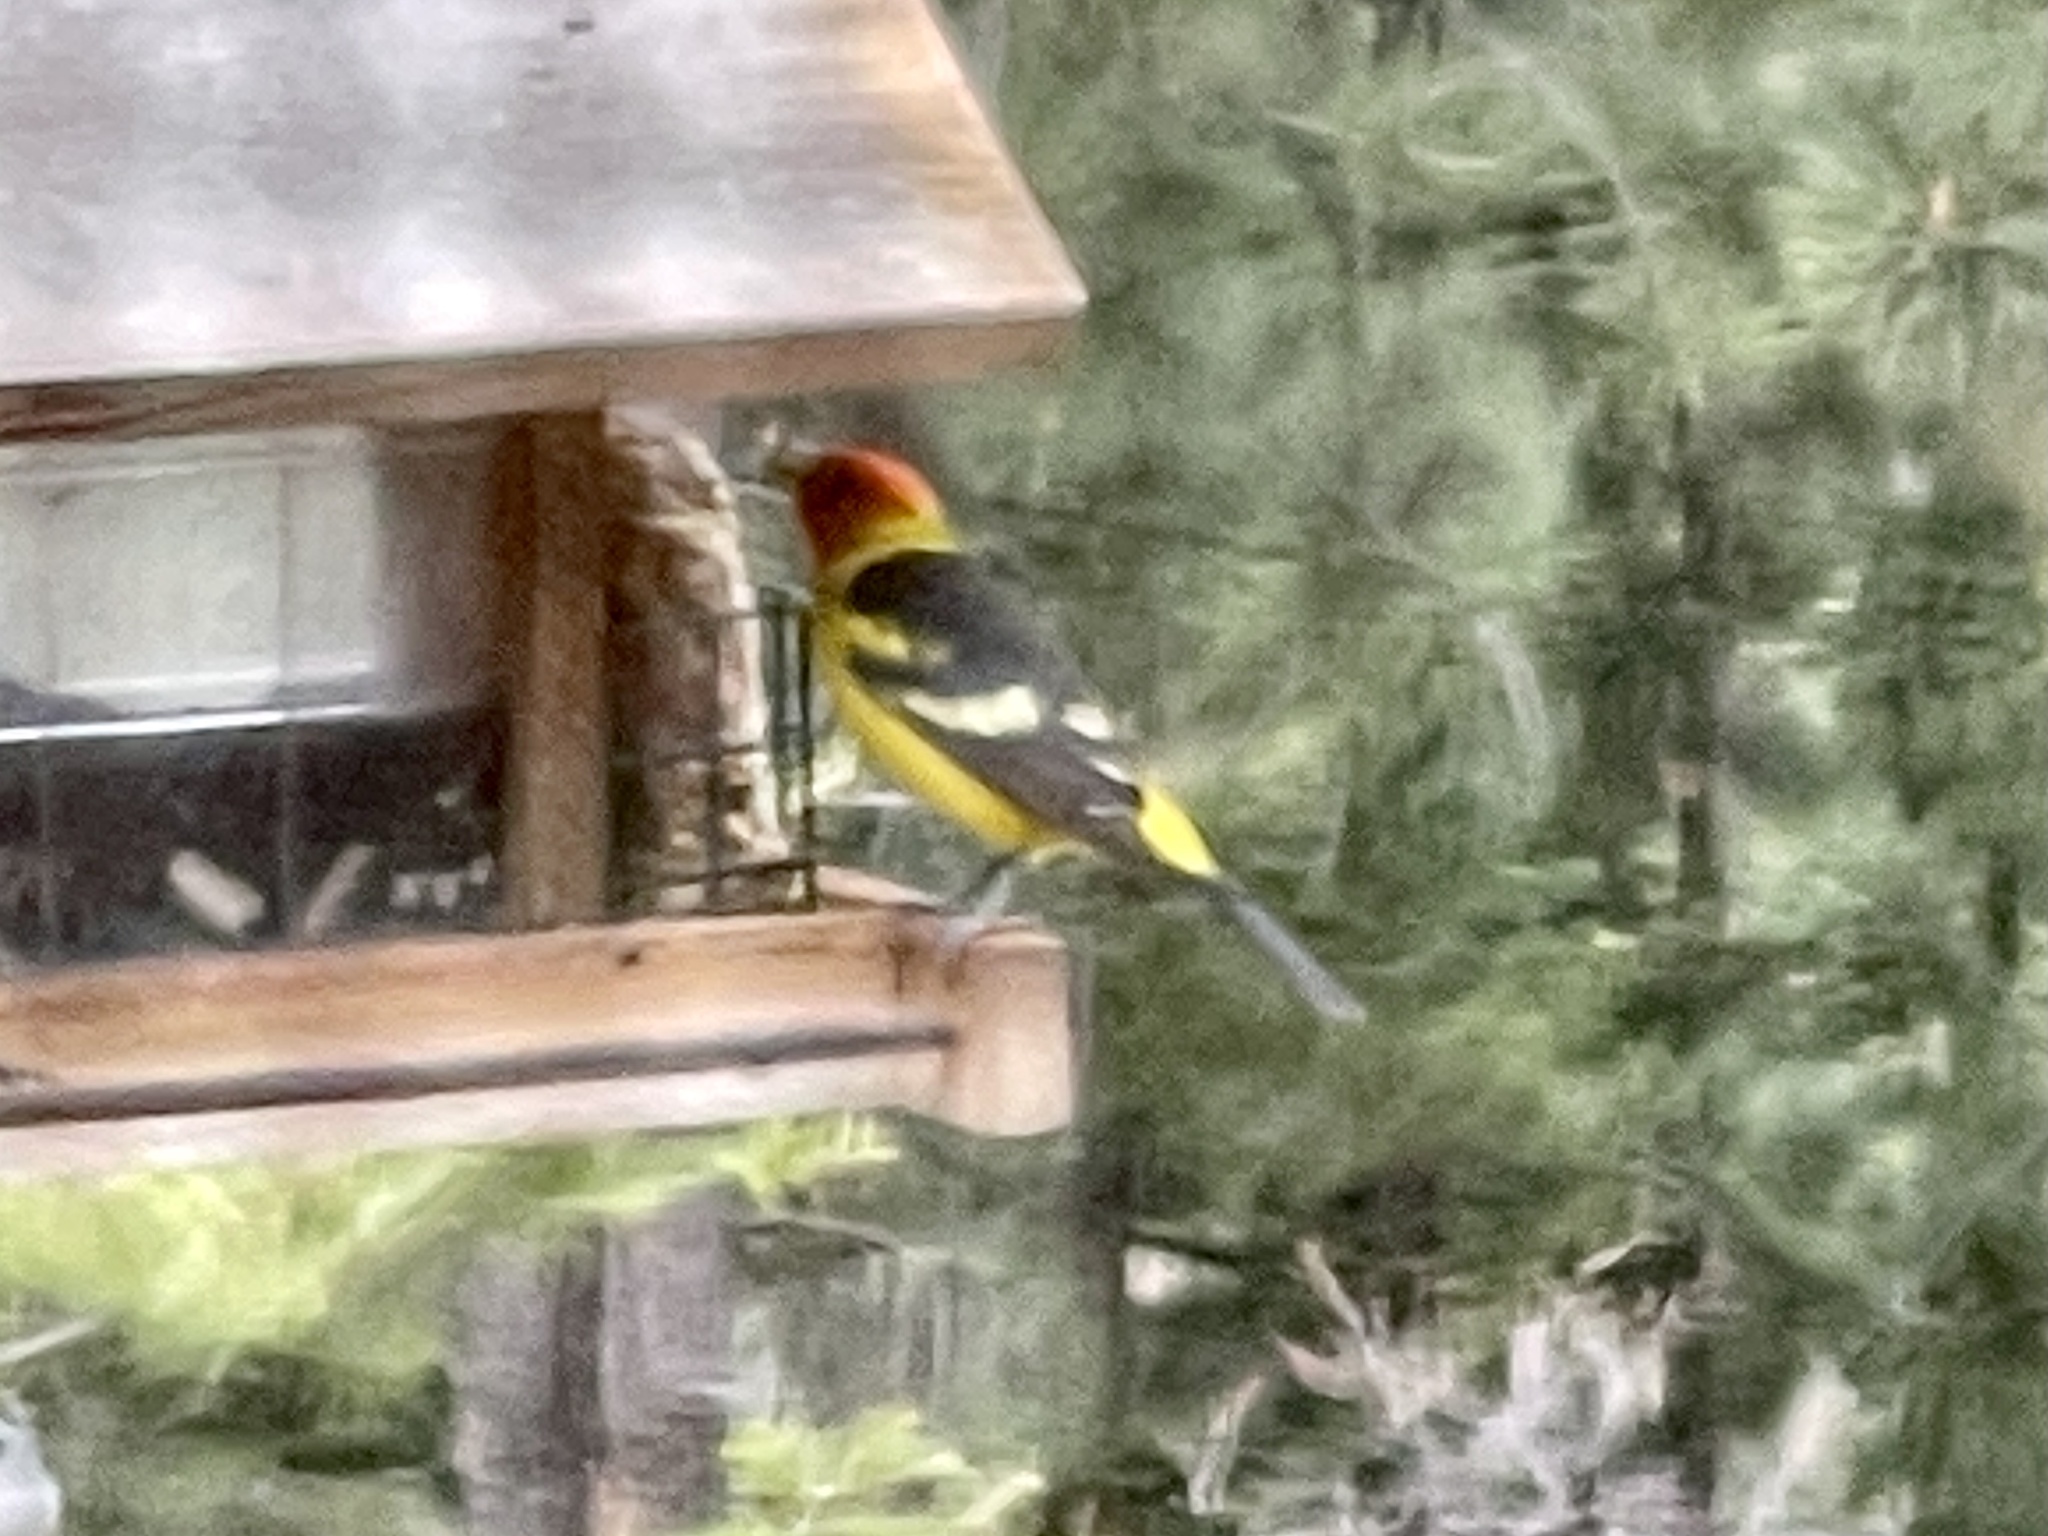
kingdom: Animalia
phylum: Chordata
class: Aves
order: Passeriformes
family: Cardinalidae
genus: Piranga
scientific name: Piranga ludoviciana
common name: Western tanager
